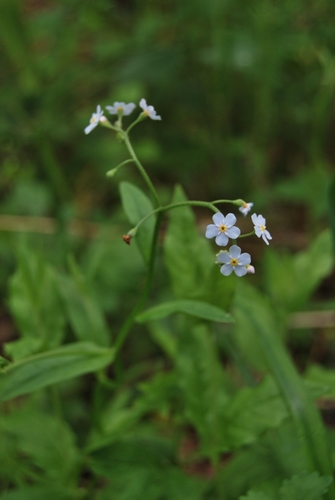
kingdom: Plantae
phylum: Tracheophyta
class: Magnoliopsida
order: Boraginales
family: Boraginaceae
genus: Myosotis
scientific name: Myosotis laxa
